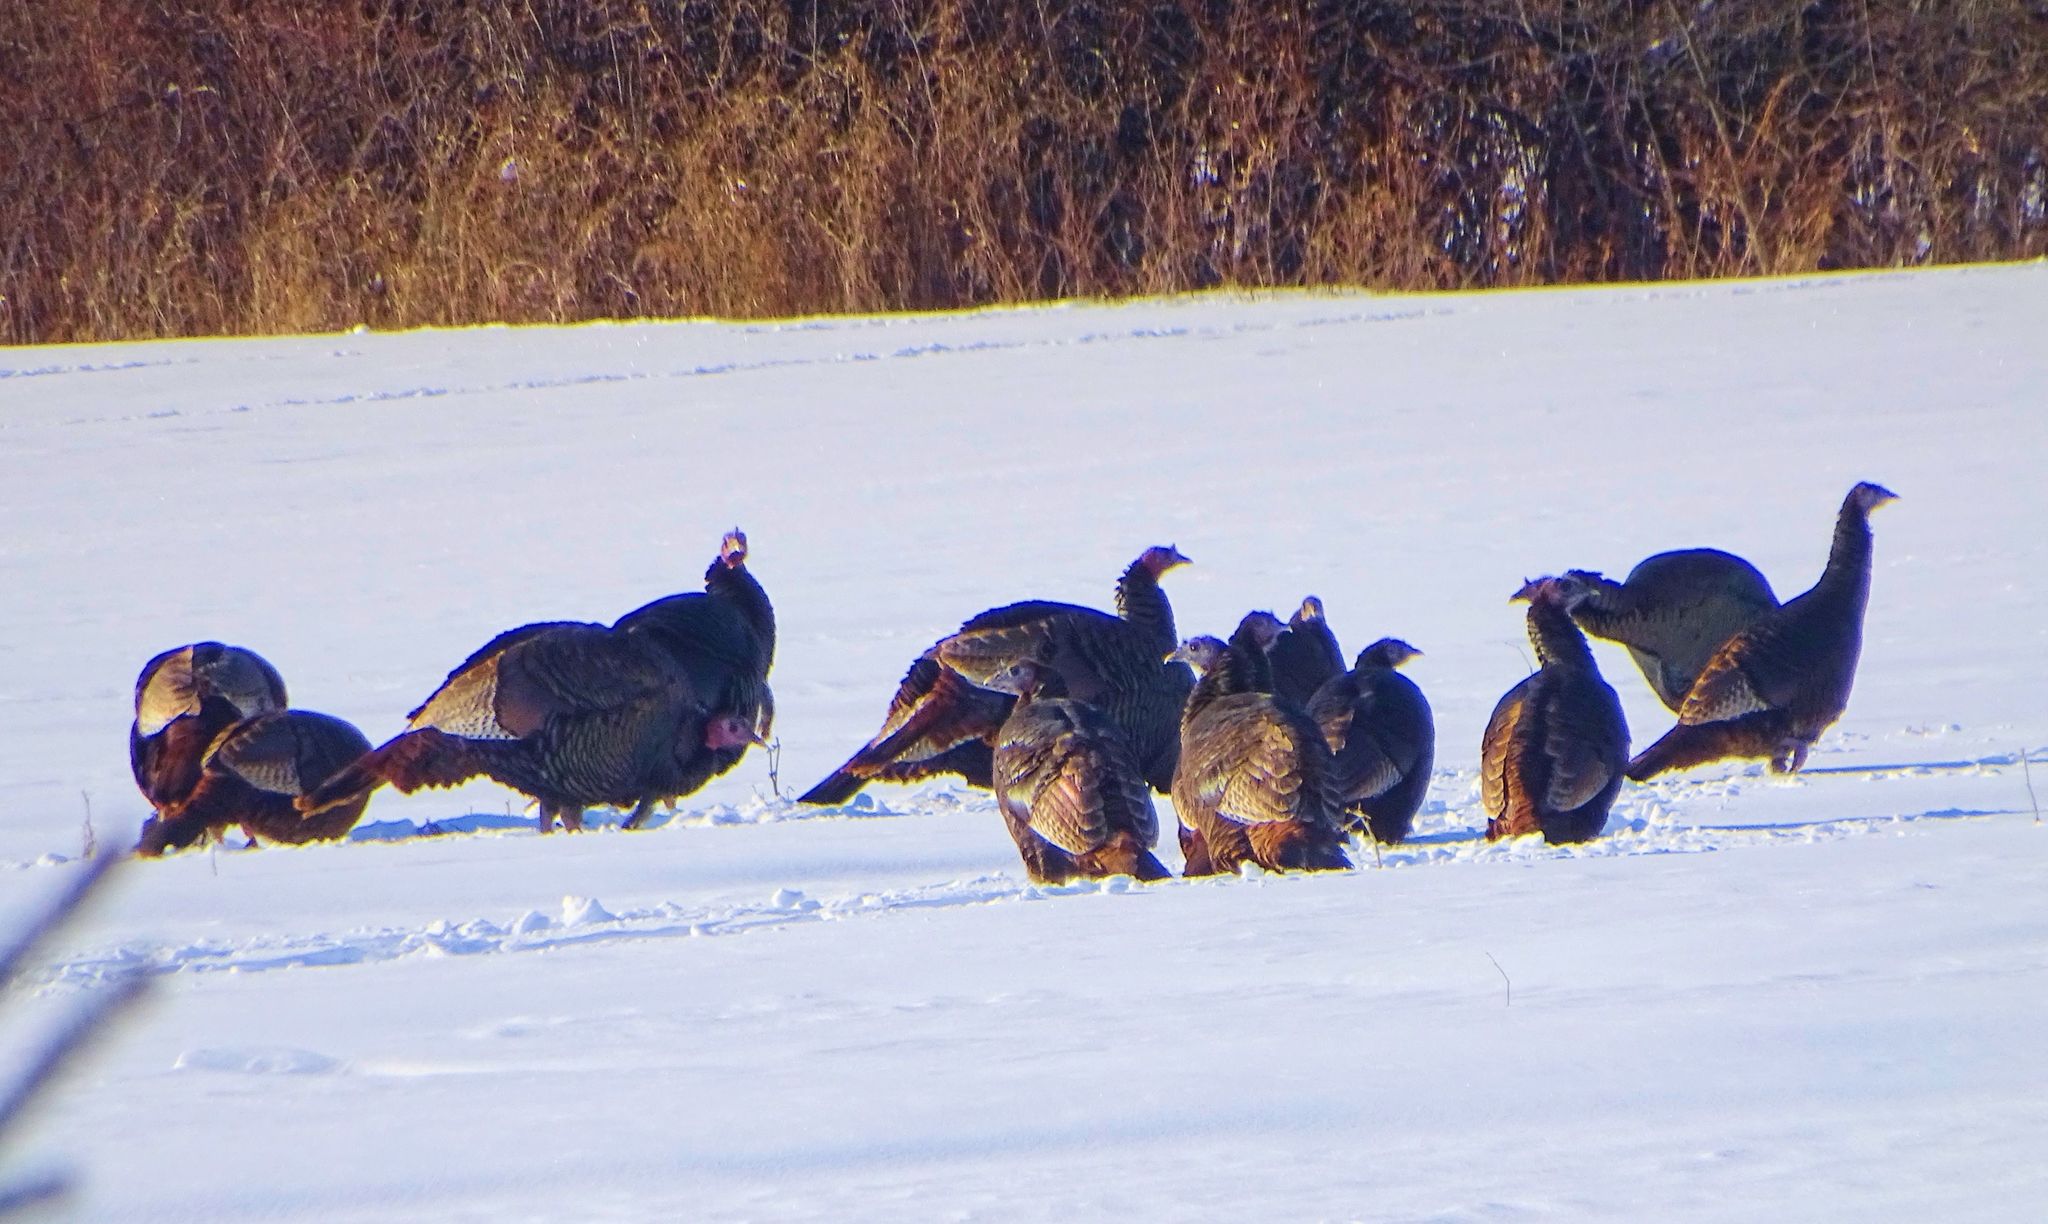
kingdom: Animalia
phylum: Chordata
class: Aves
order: Galliformes
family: Phasianidae
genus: Meleagris
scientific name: Meleagris gallopavo
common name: Wild turkey
